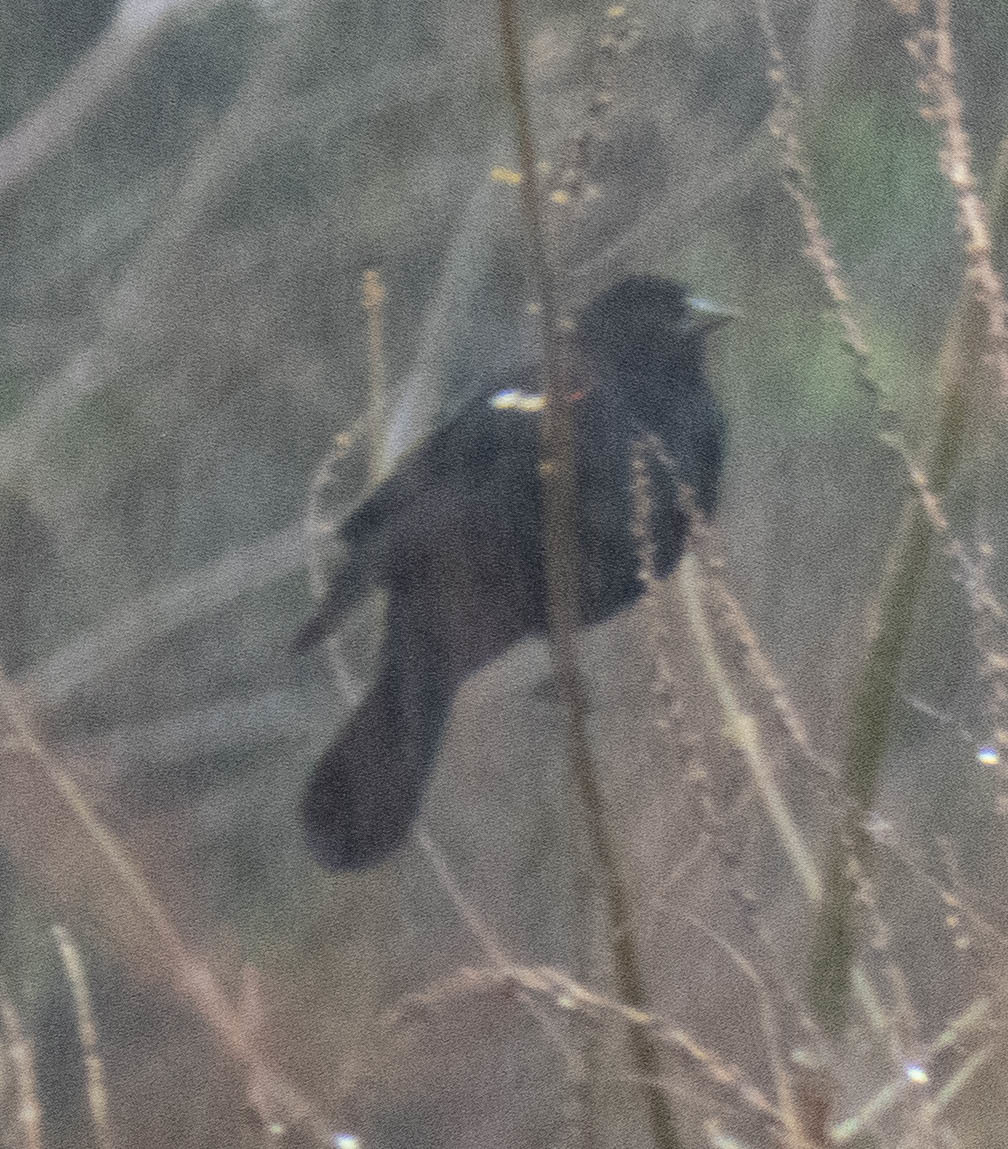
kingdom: Animalia
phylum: Chordata
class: Aves
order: Passeriformes
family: Icteridae
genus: Agelaius
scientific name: Agelaius phoeniceus
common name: Red-winged blackbird
